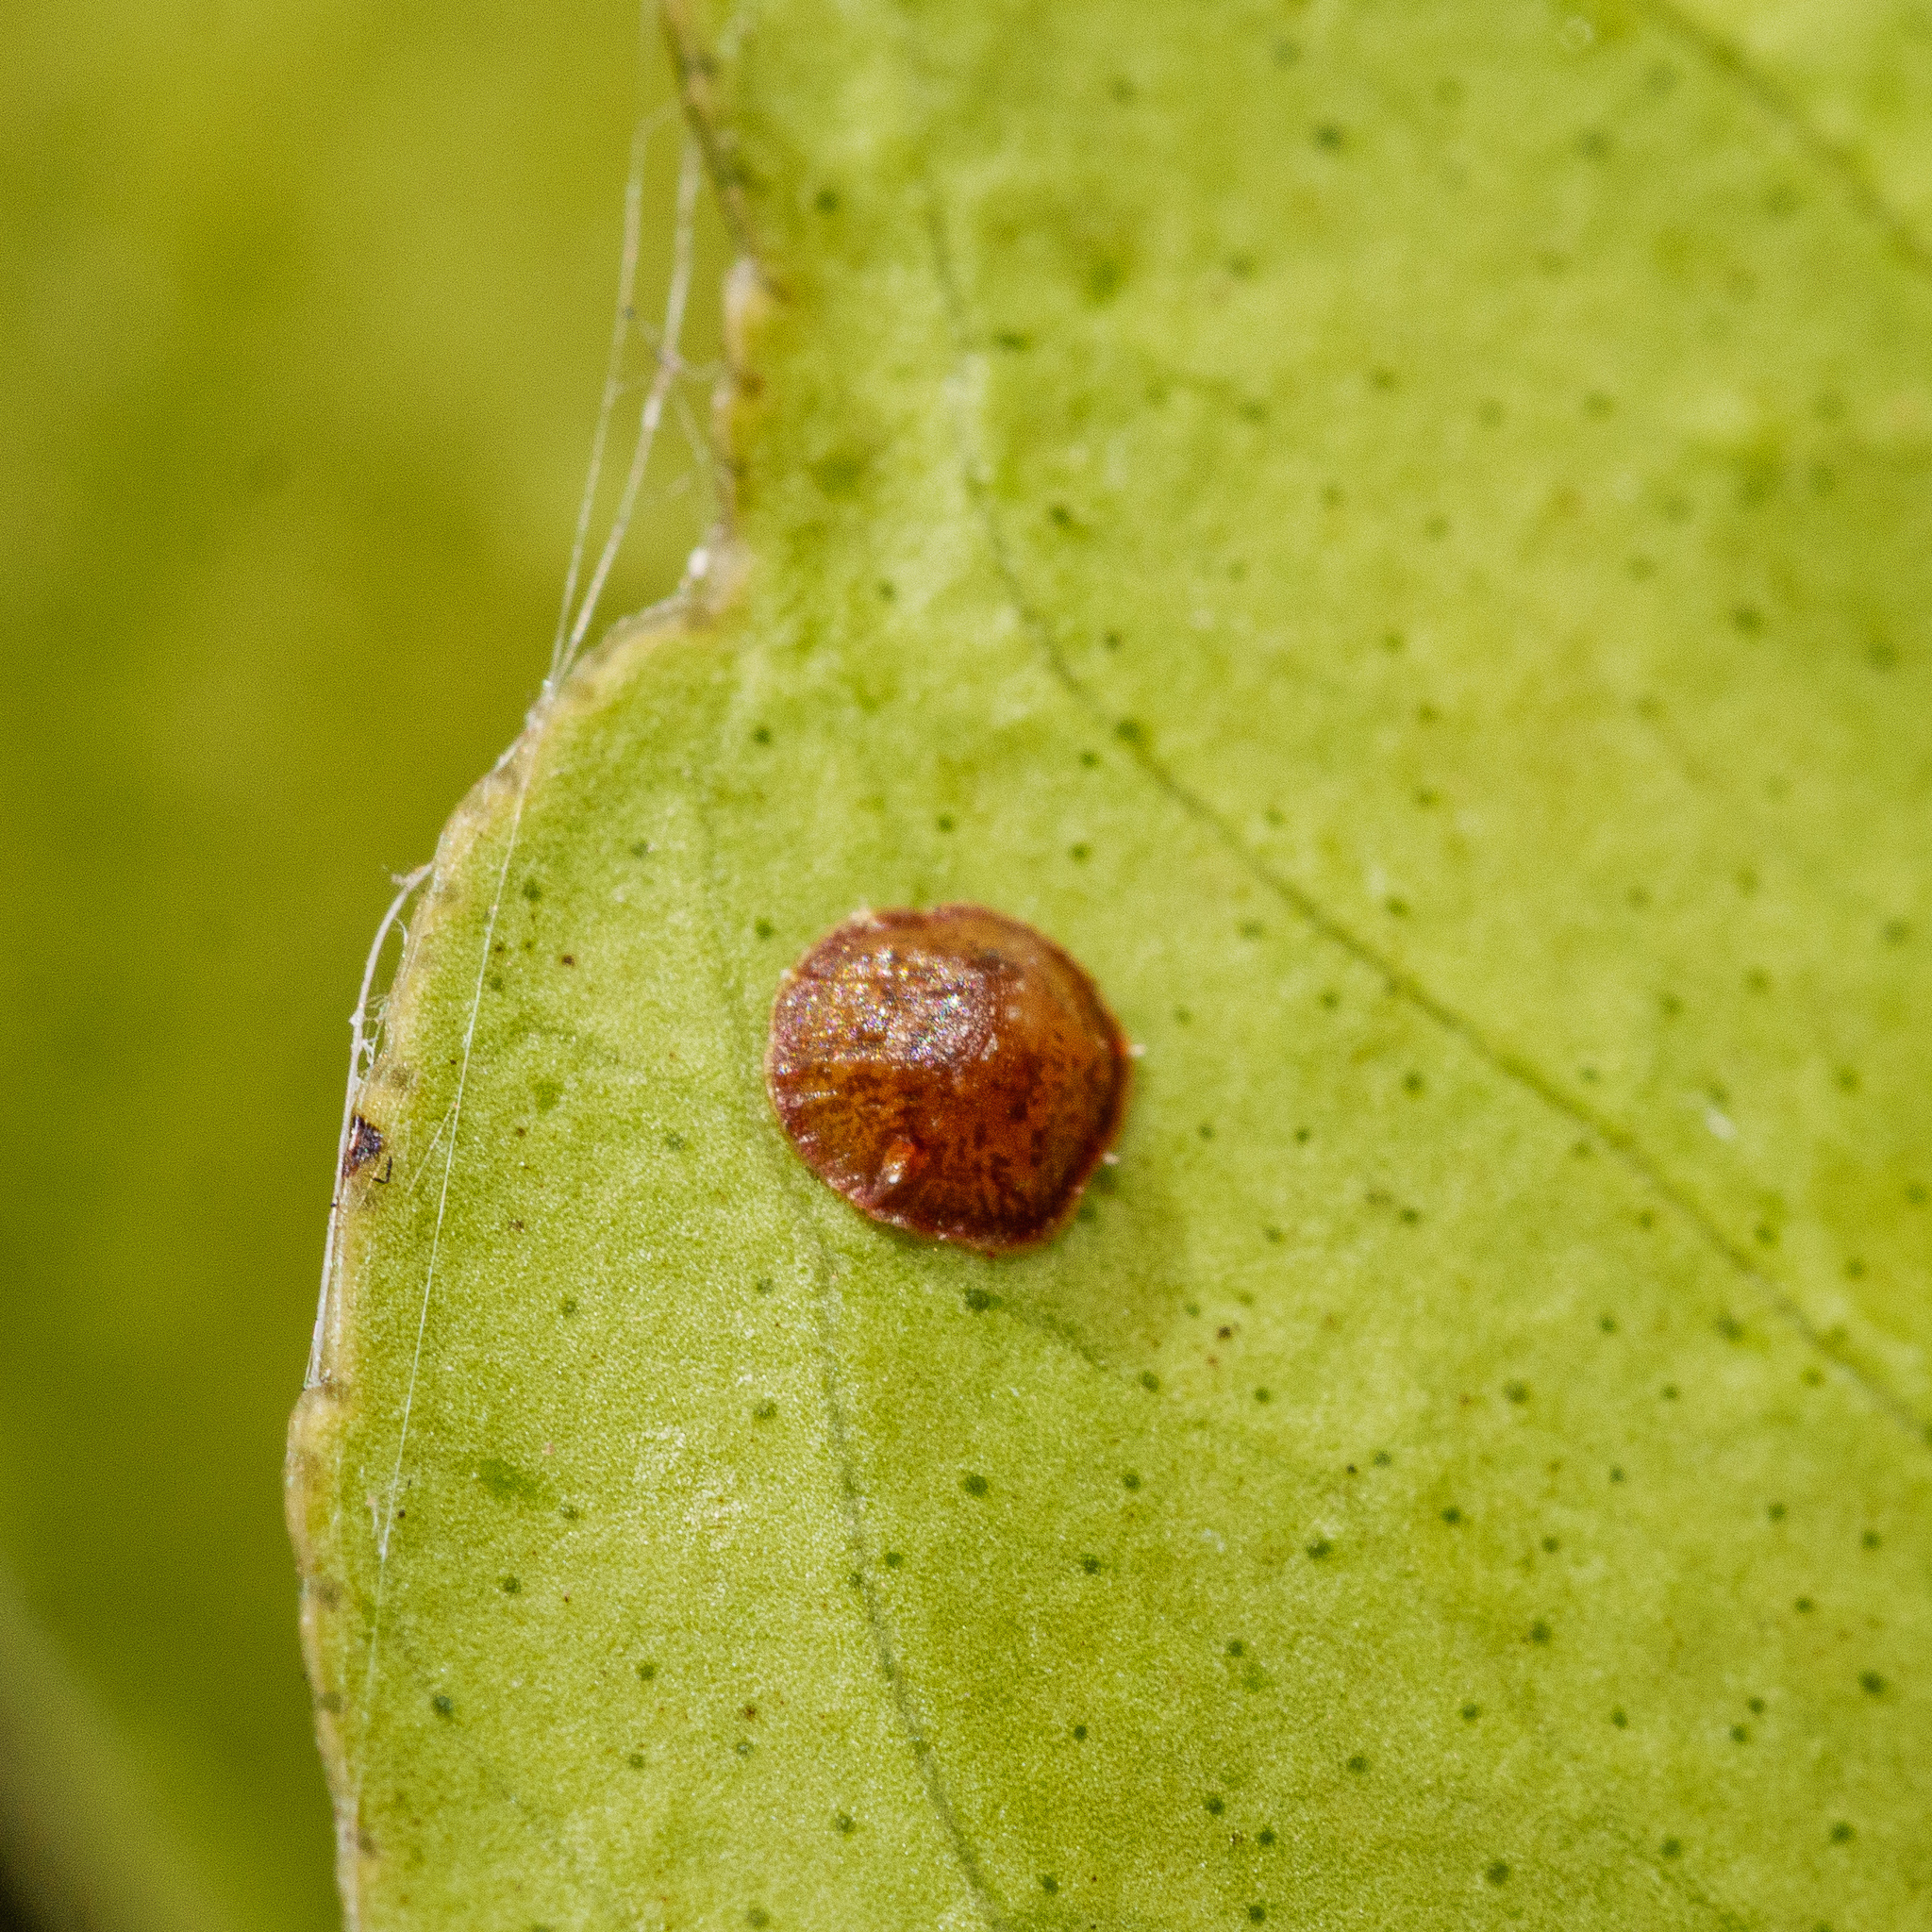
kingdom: Animalia
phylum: Arthropoda
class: Insecta
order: Hemiptera
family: Coccidae
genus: Saissetia
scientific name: Saissetia coffeae
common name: Hemispherical scale
